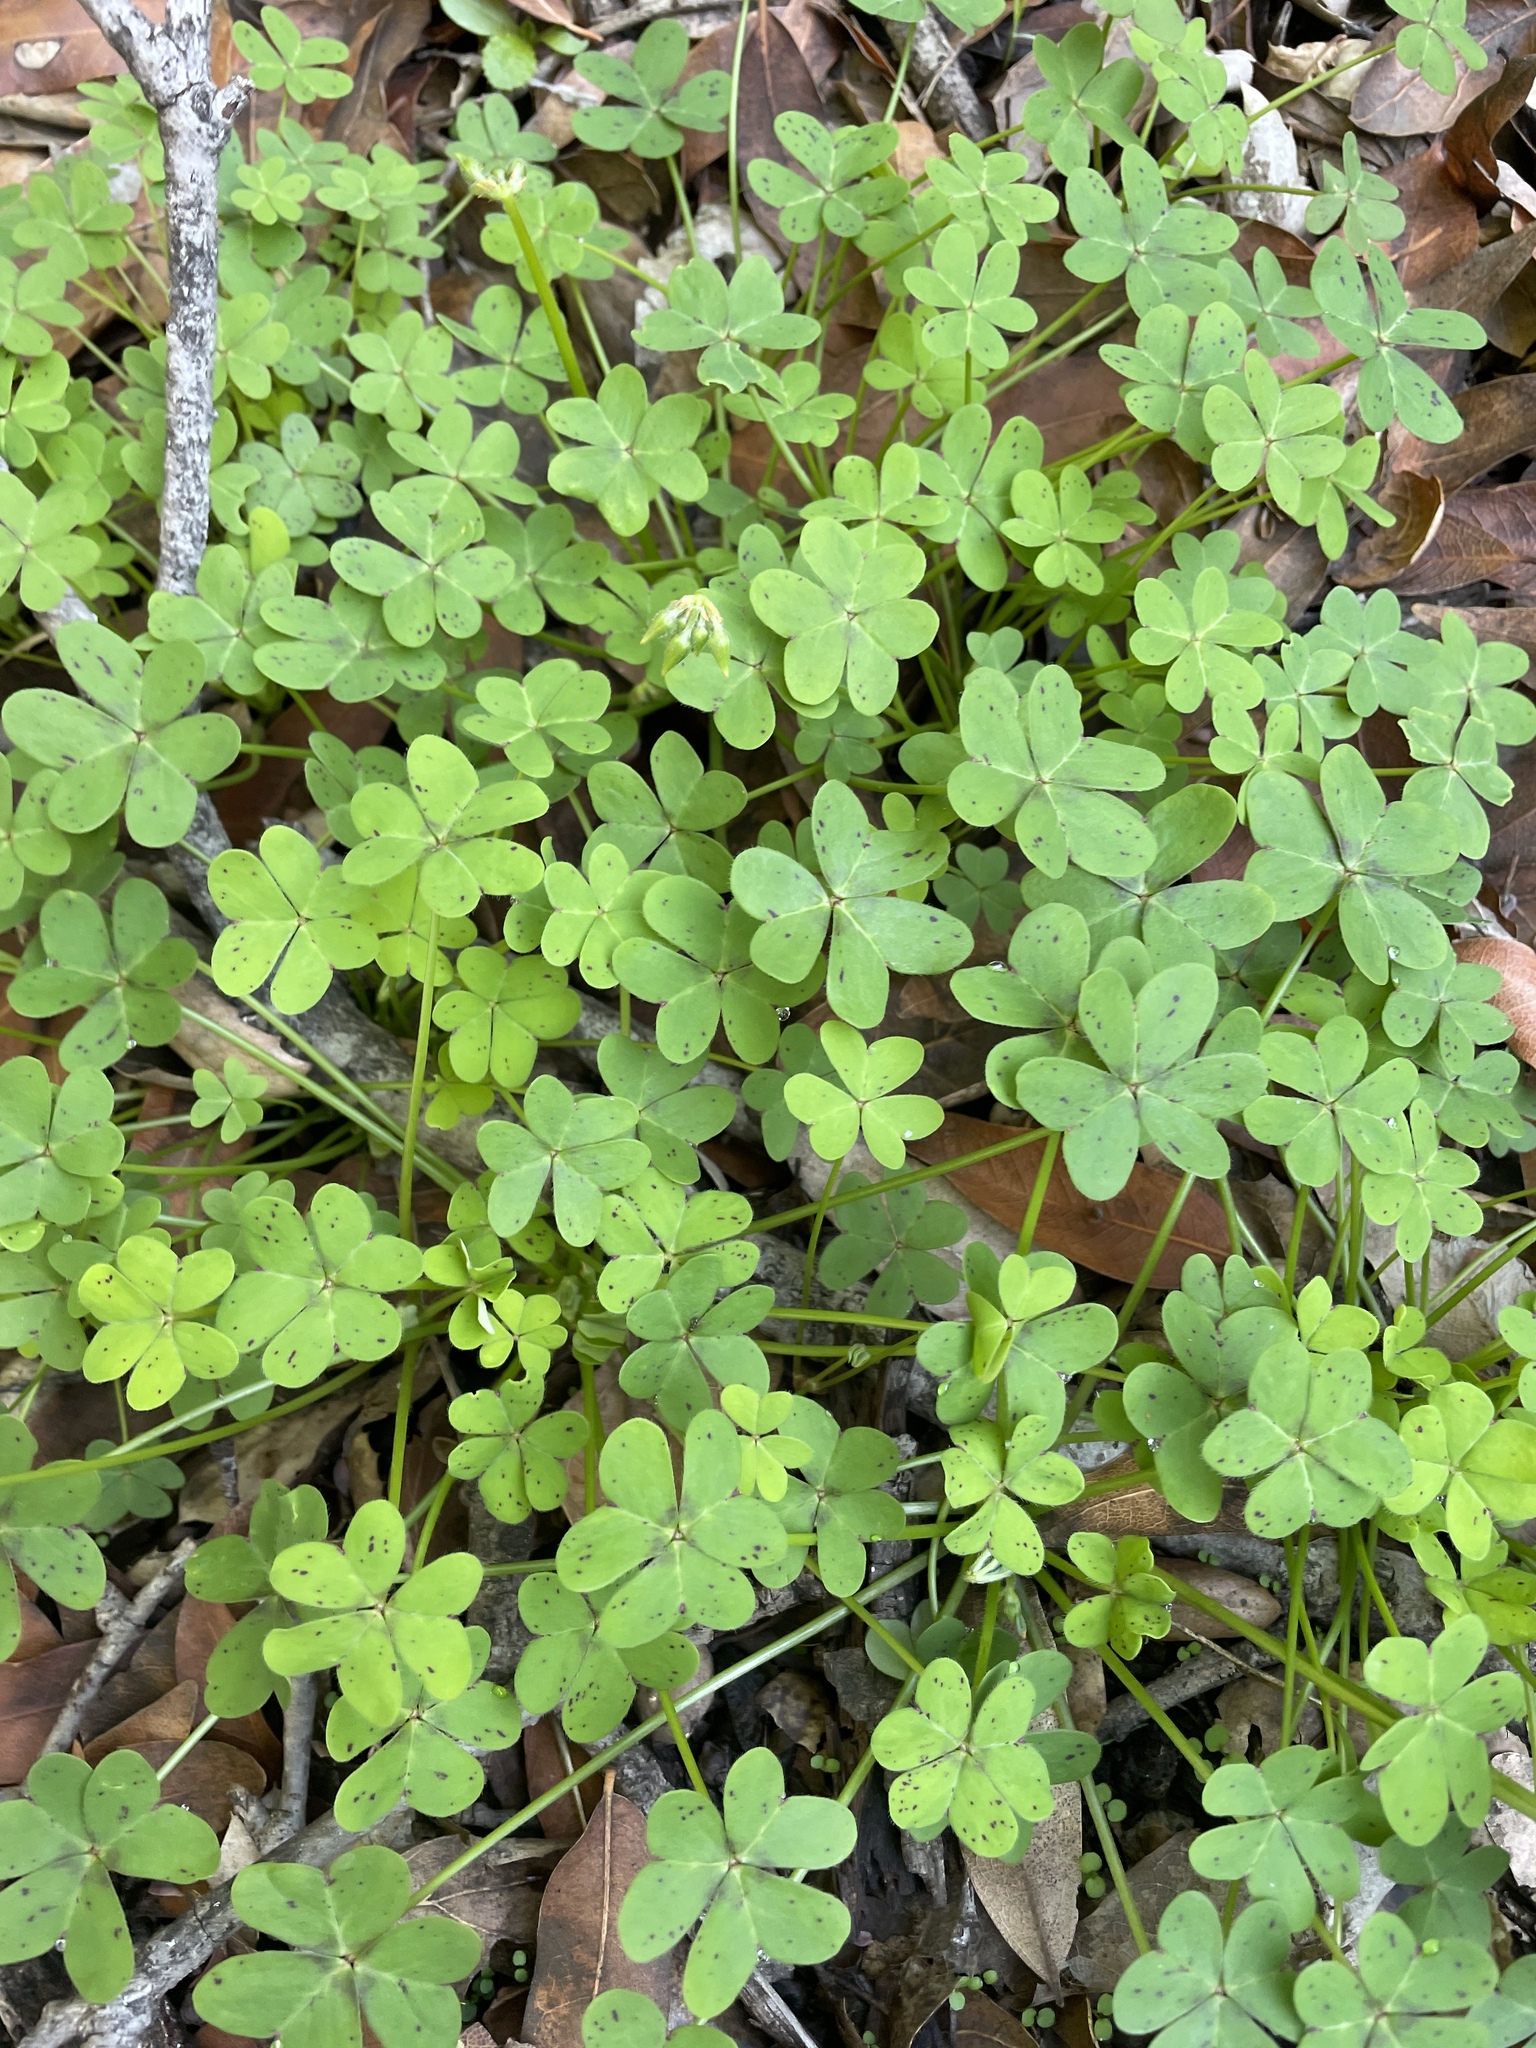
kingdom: Plantae
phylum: Tracheophyta
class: Magnoliopsida
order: Oxalidales
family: Oxalidaceae
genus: Oxalis
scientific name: Oxalis pes-caprae
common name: Bermuda-buttercup
